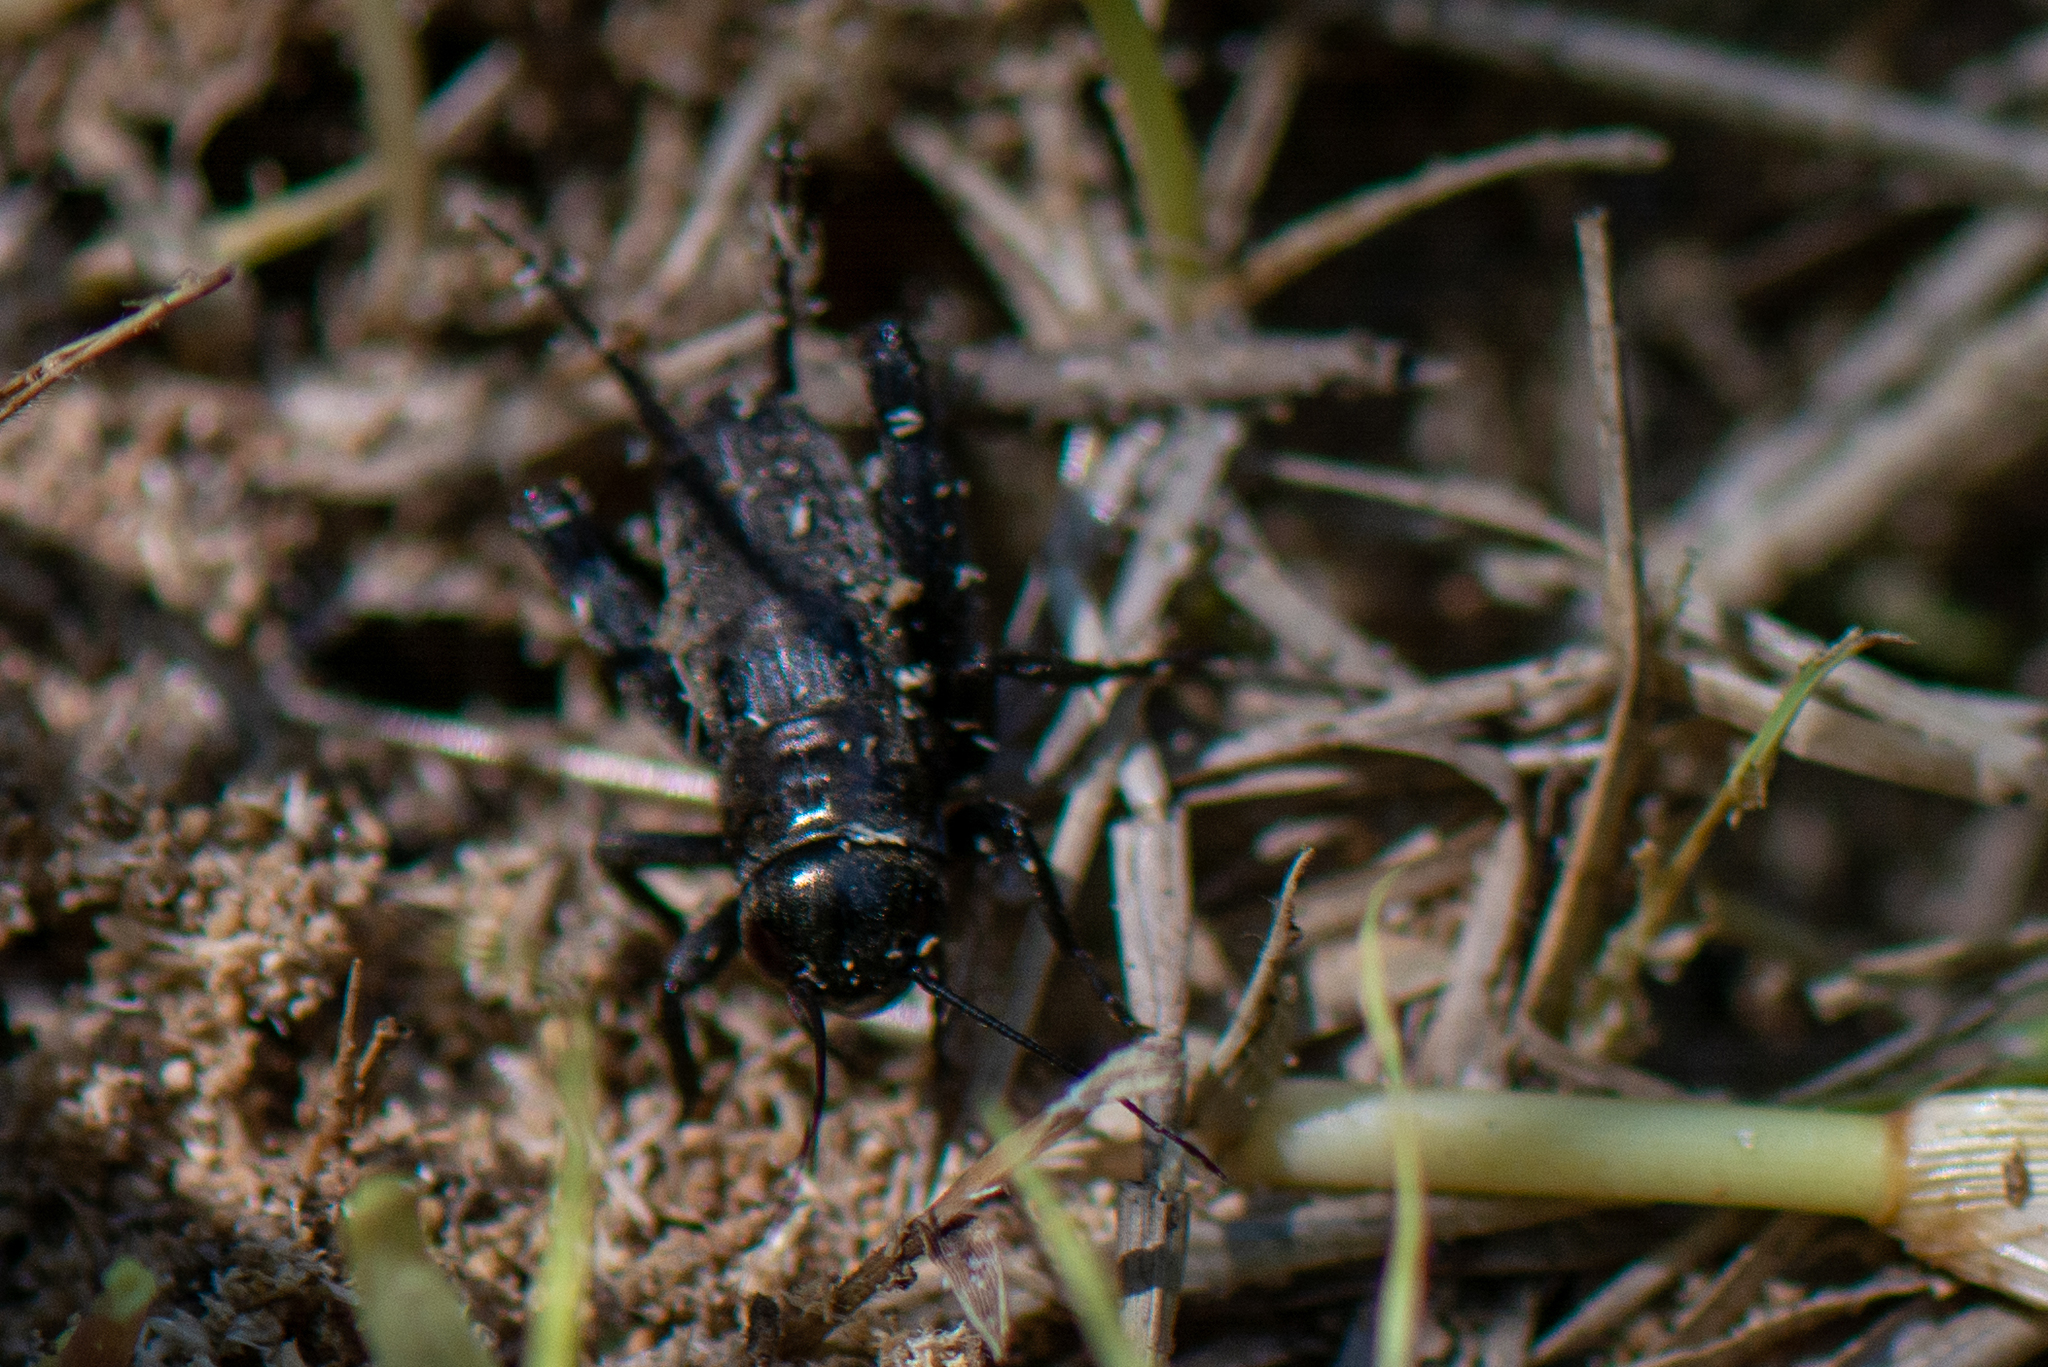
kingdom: Animalia
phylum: Arthropoda
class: Insecta
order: Orthoptera
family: Gryllidae
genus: Gryllus
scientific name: Gryllus
